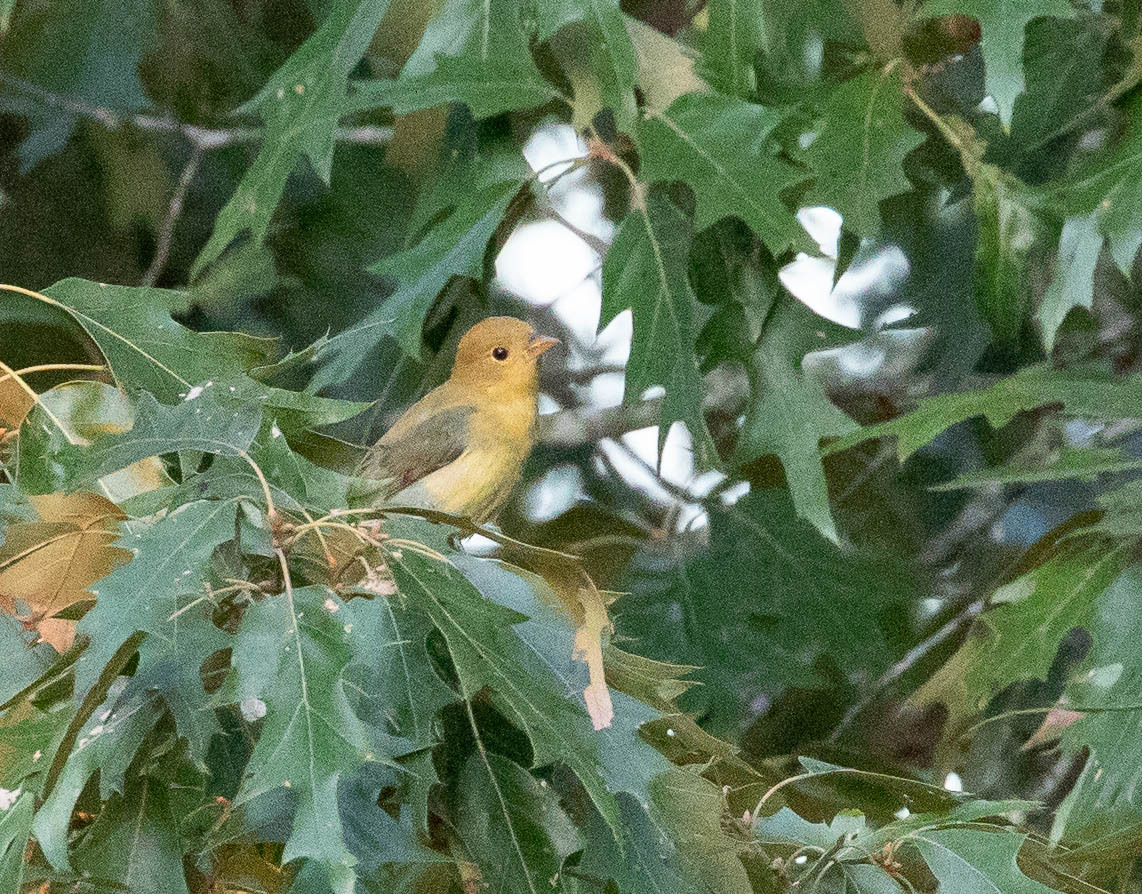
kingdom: Animalia
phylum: Chordata
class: Aves
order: Passeriformes
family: Cardinalidae
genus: Piranga
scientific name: Piranga olivacea
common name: Scarlet tanager
